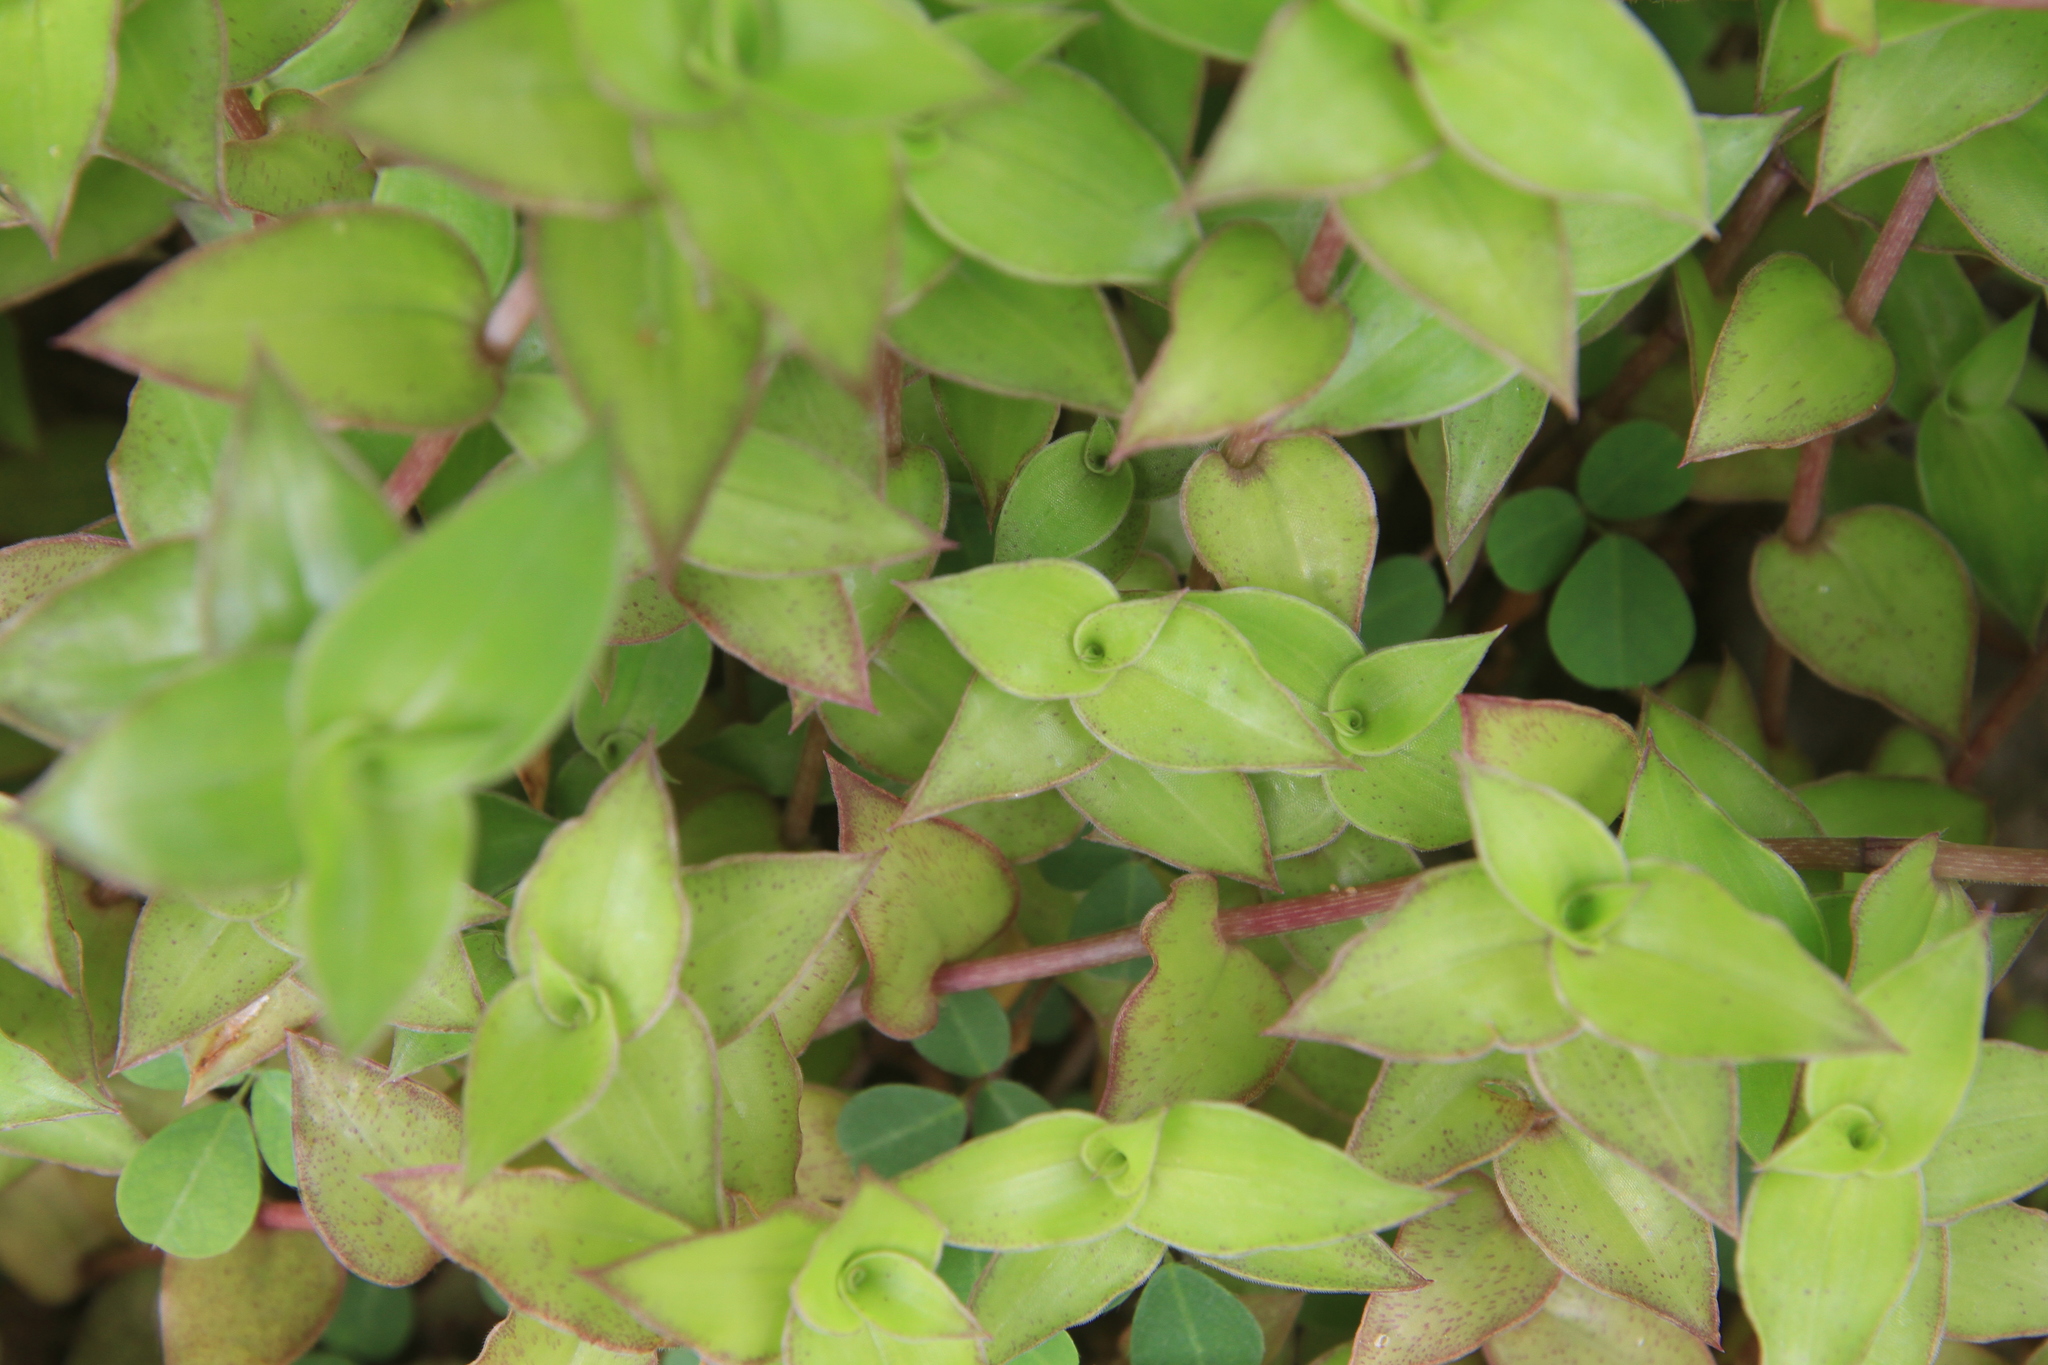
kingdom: Plantae
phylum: Tracheophyta
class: Liliopsida
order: Commelinales
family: Commelinaceae
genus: Tradescantia
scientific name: Tradescantia fluminensis
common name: Wandering-jew
